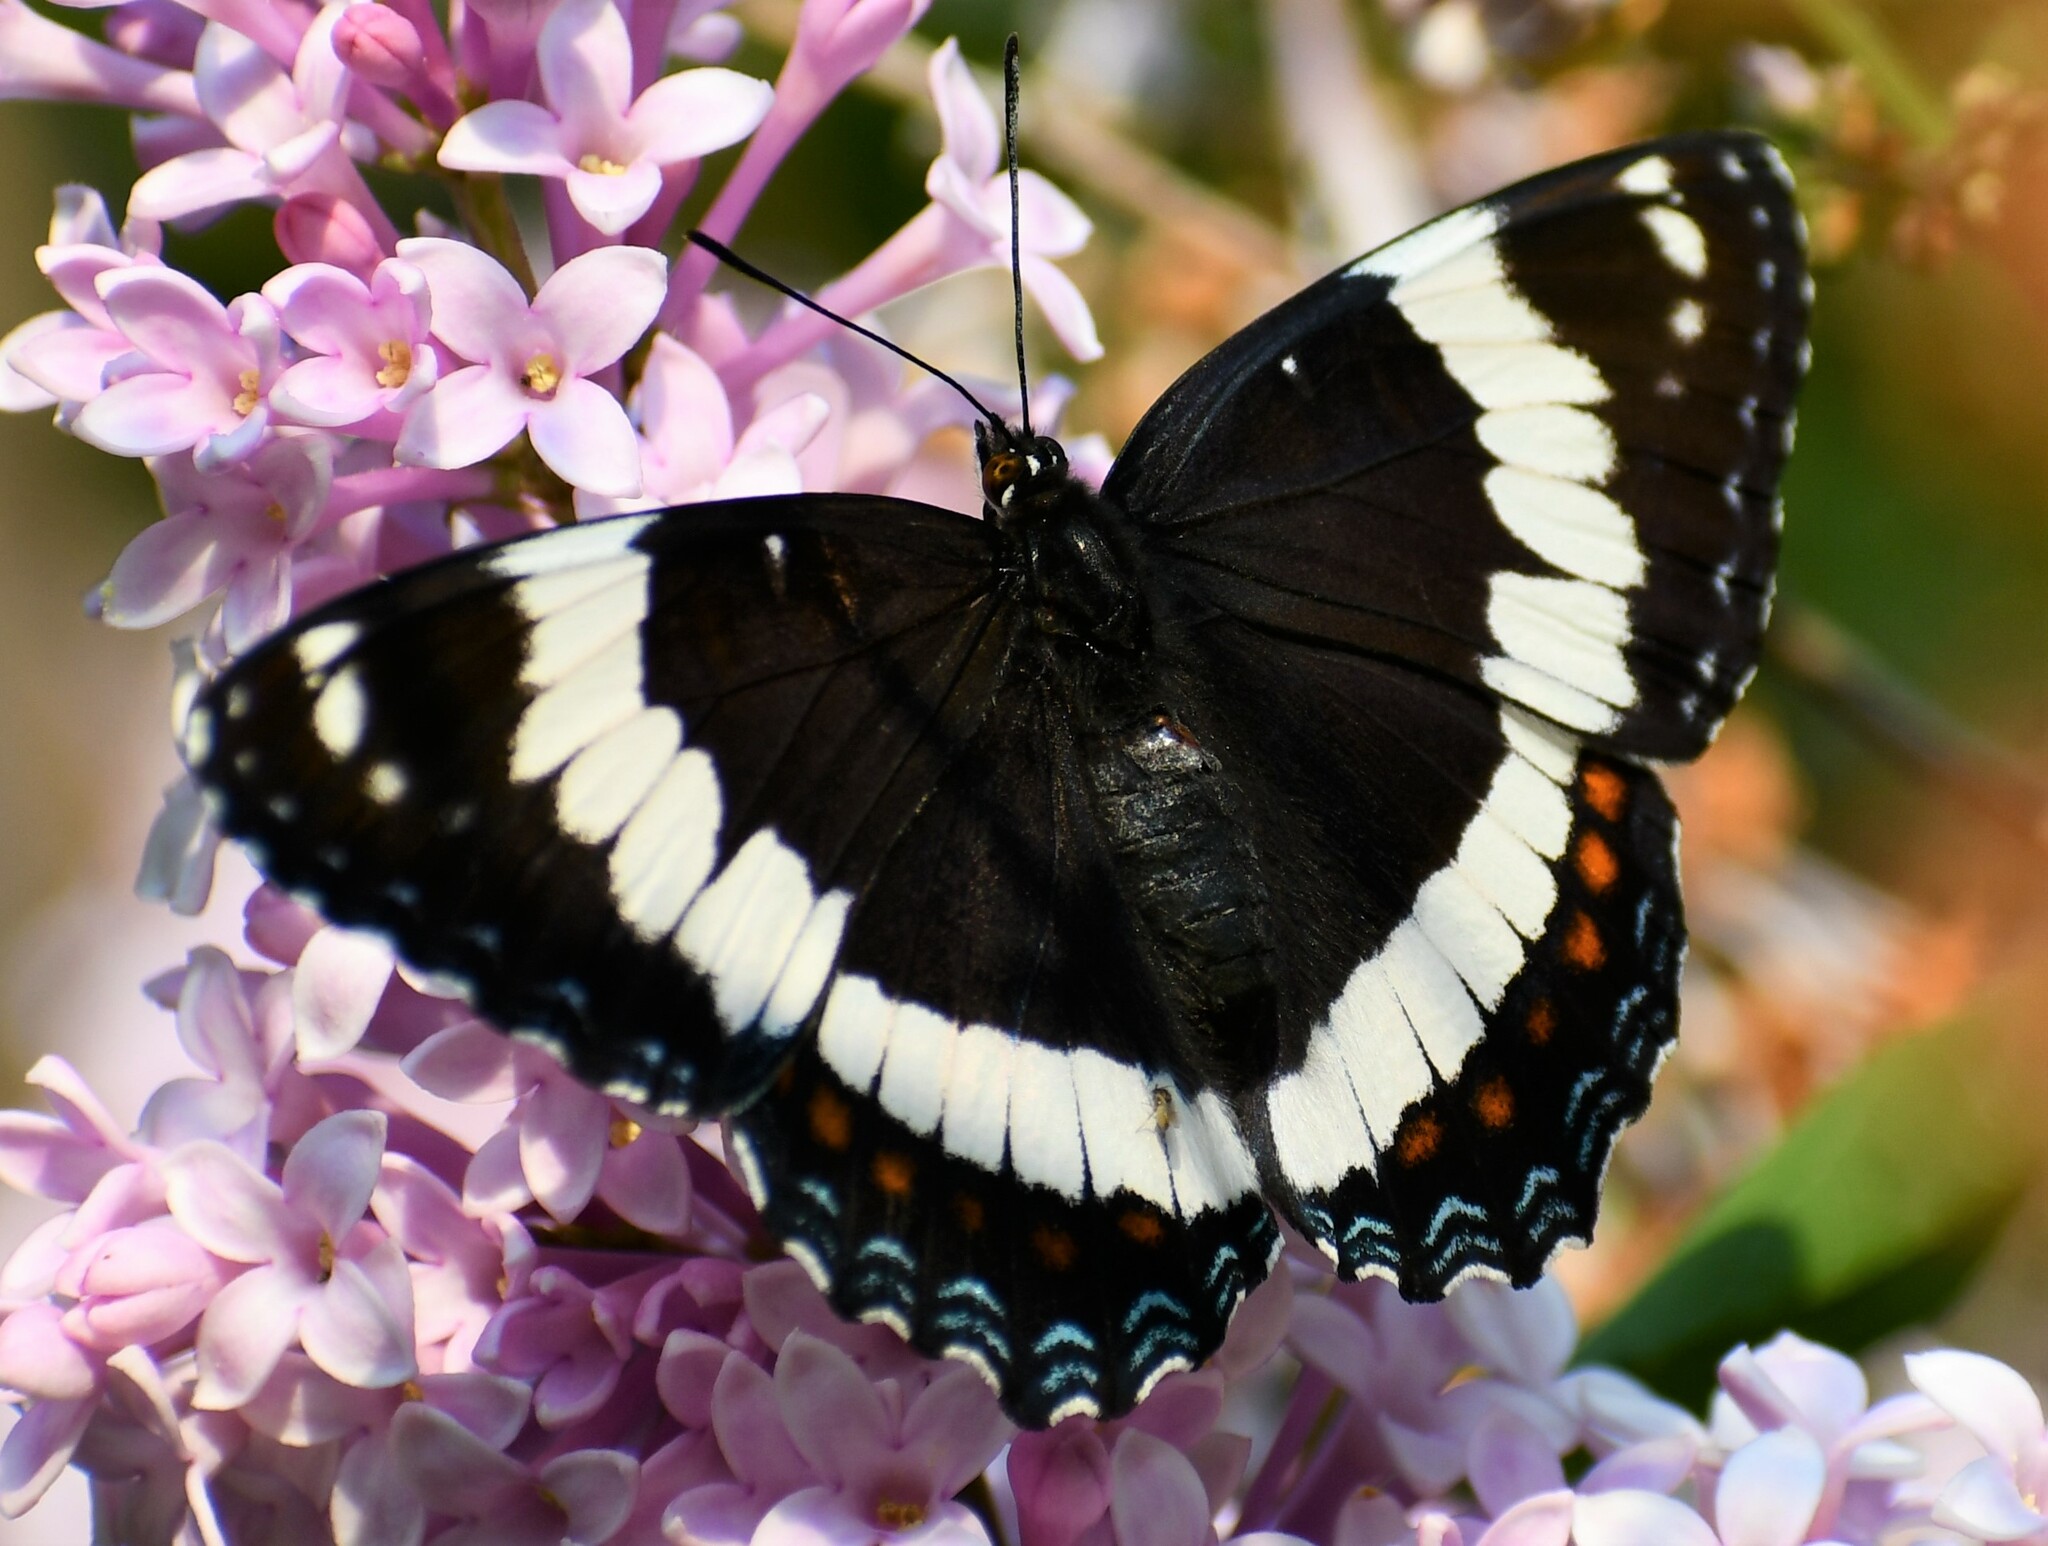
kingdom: Animalia
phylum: Arthropoda
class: Insecta
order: Lepidoptera
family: Nymphalidae
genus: Limenitis
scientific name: Limenitis arthemis
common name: Red-spotted admiral
